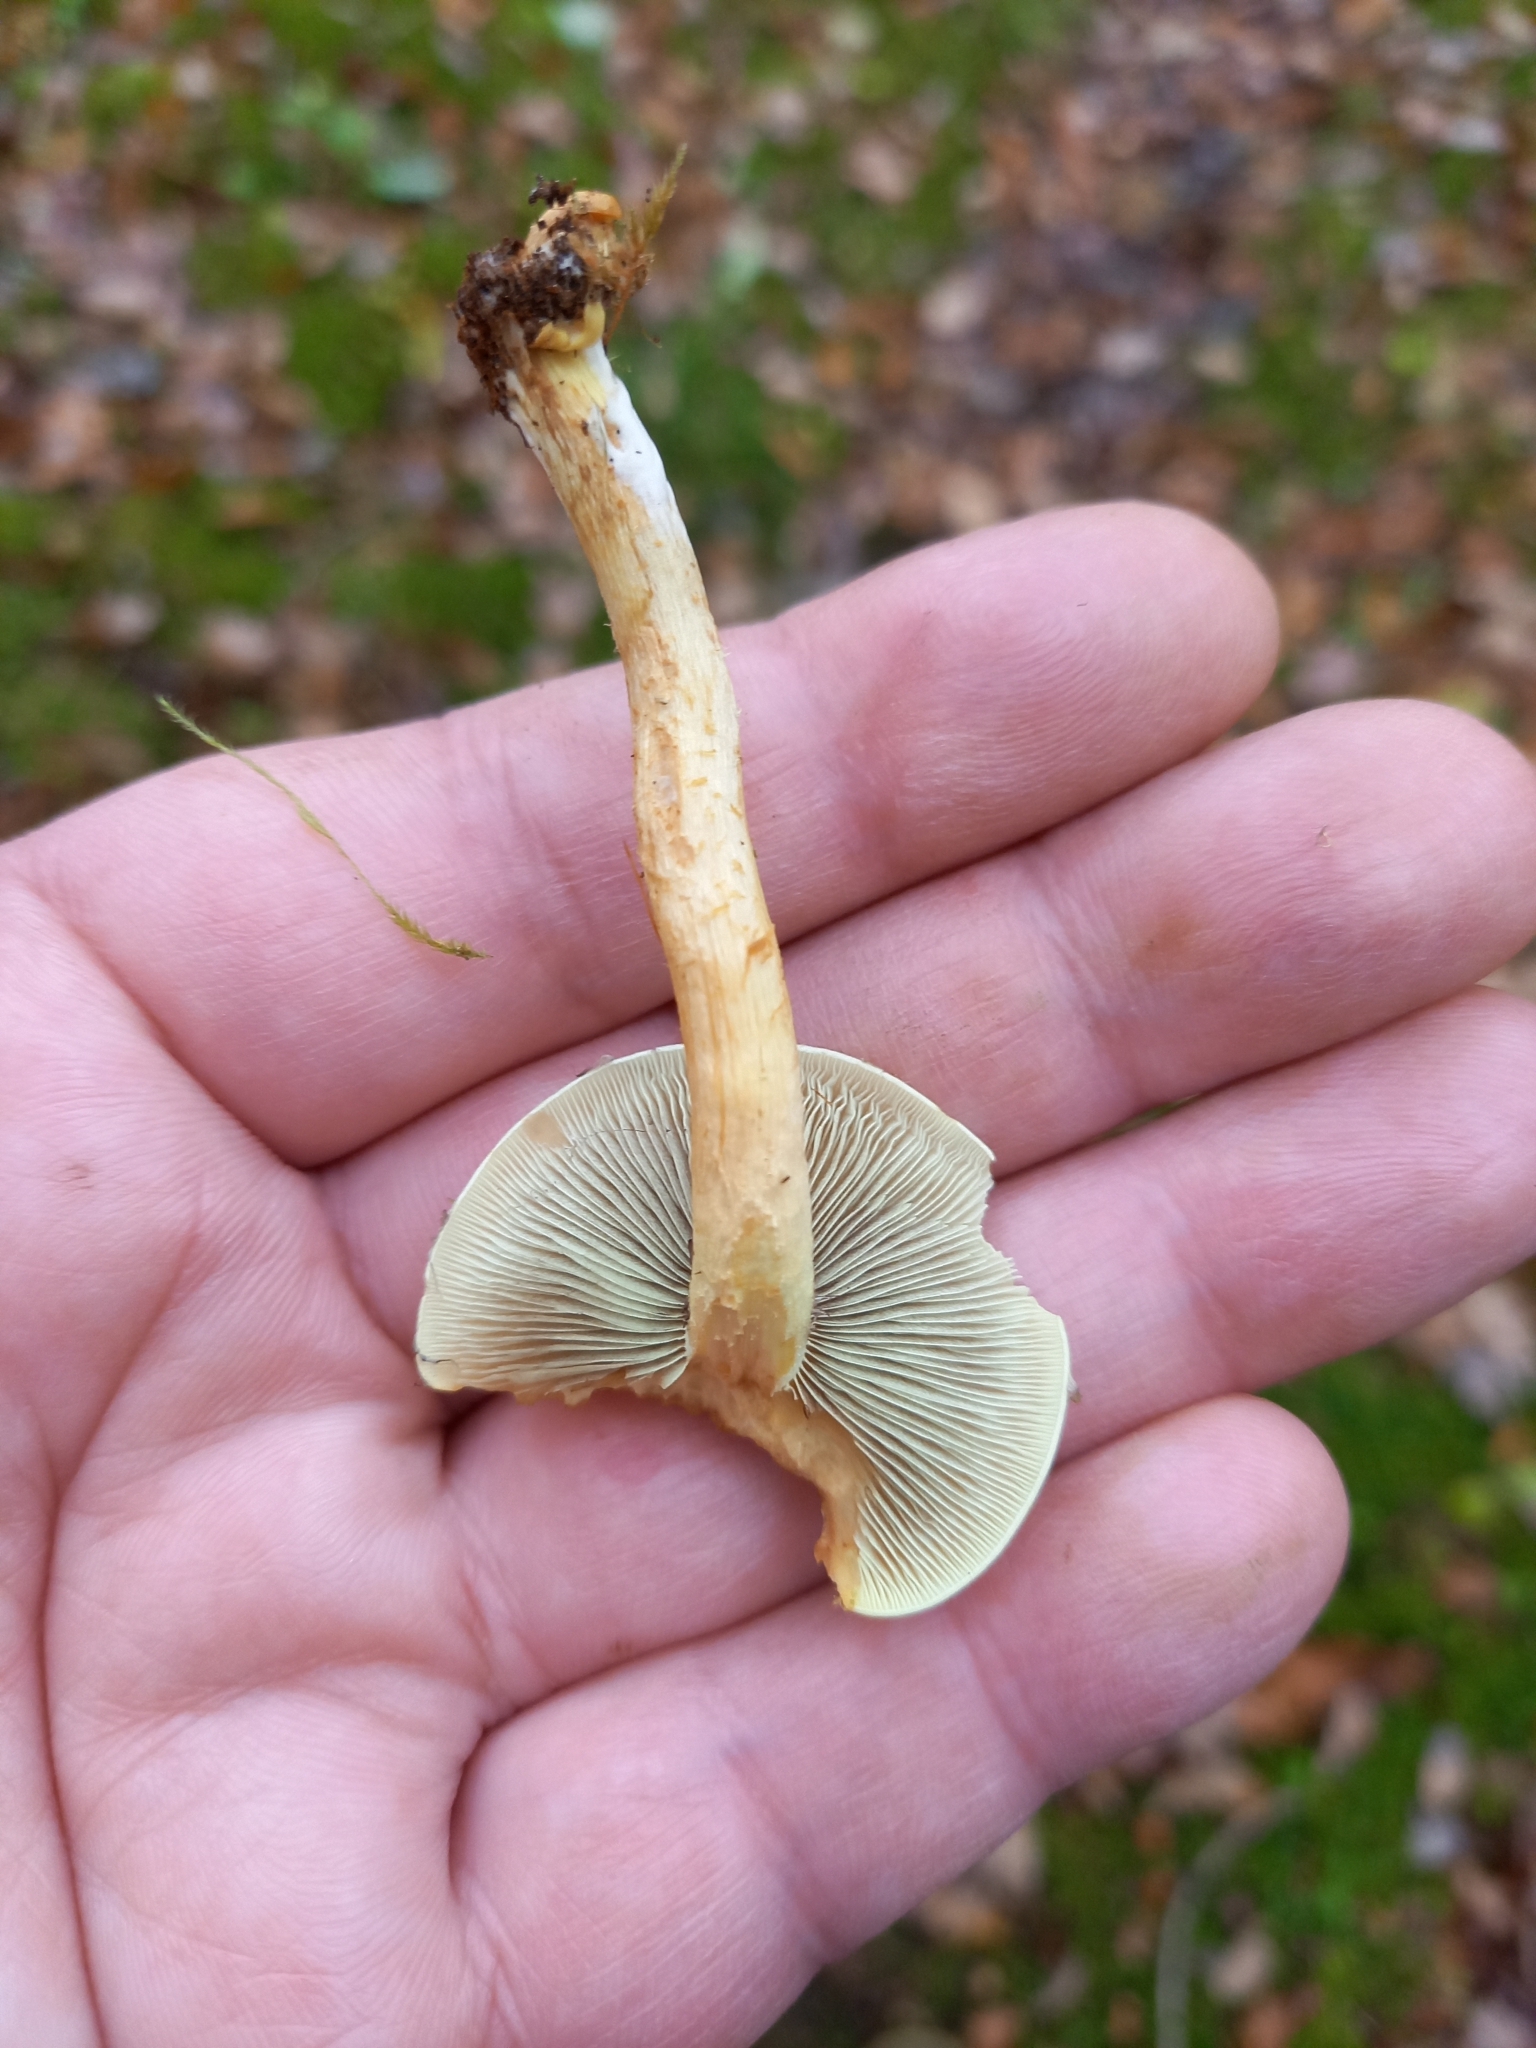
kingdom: Fungi
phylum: Basidiomycota
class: Agaricomycetes
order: Agaricales
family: Strophariaceae
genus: Hypholoma
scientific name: Hypholoma fasciculare
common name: Sulphur tuft
